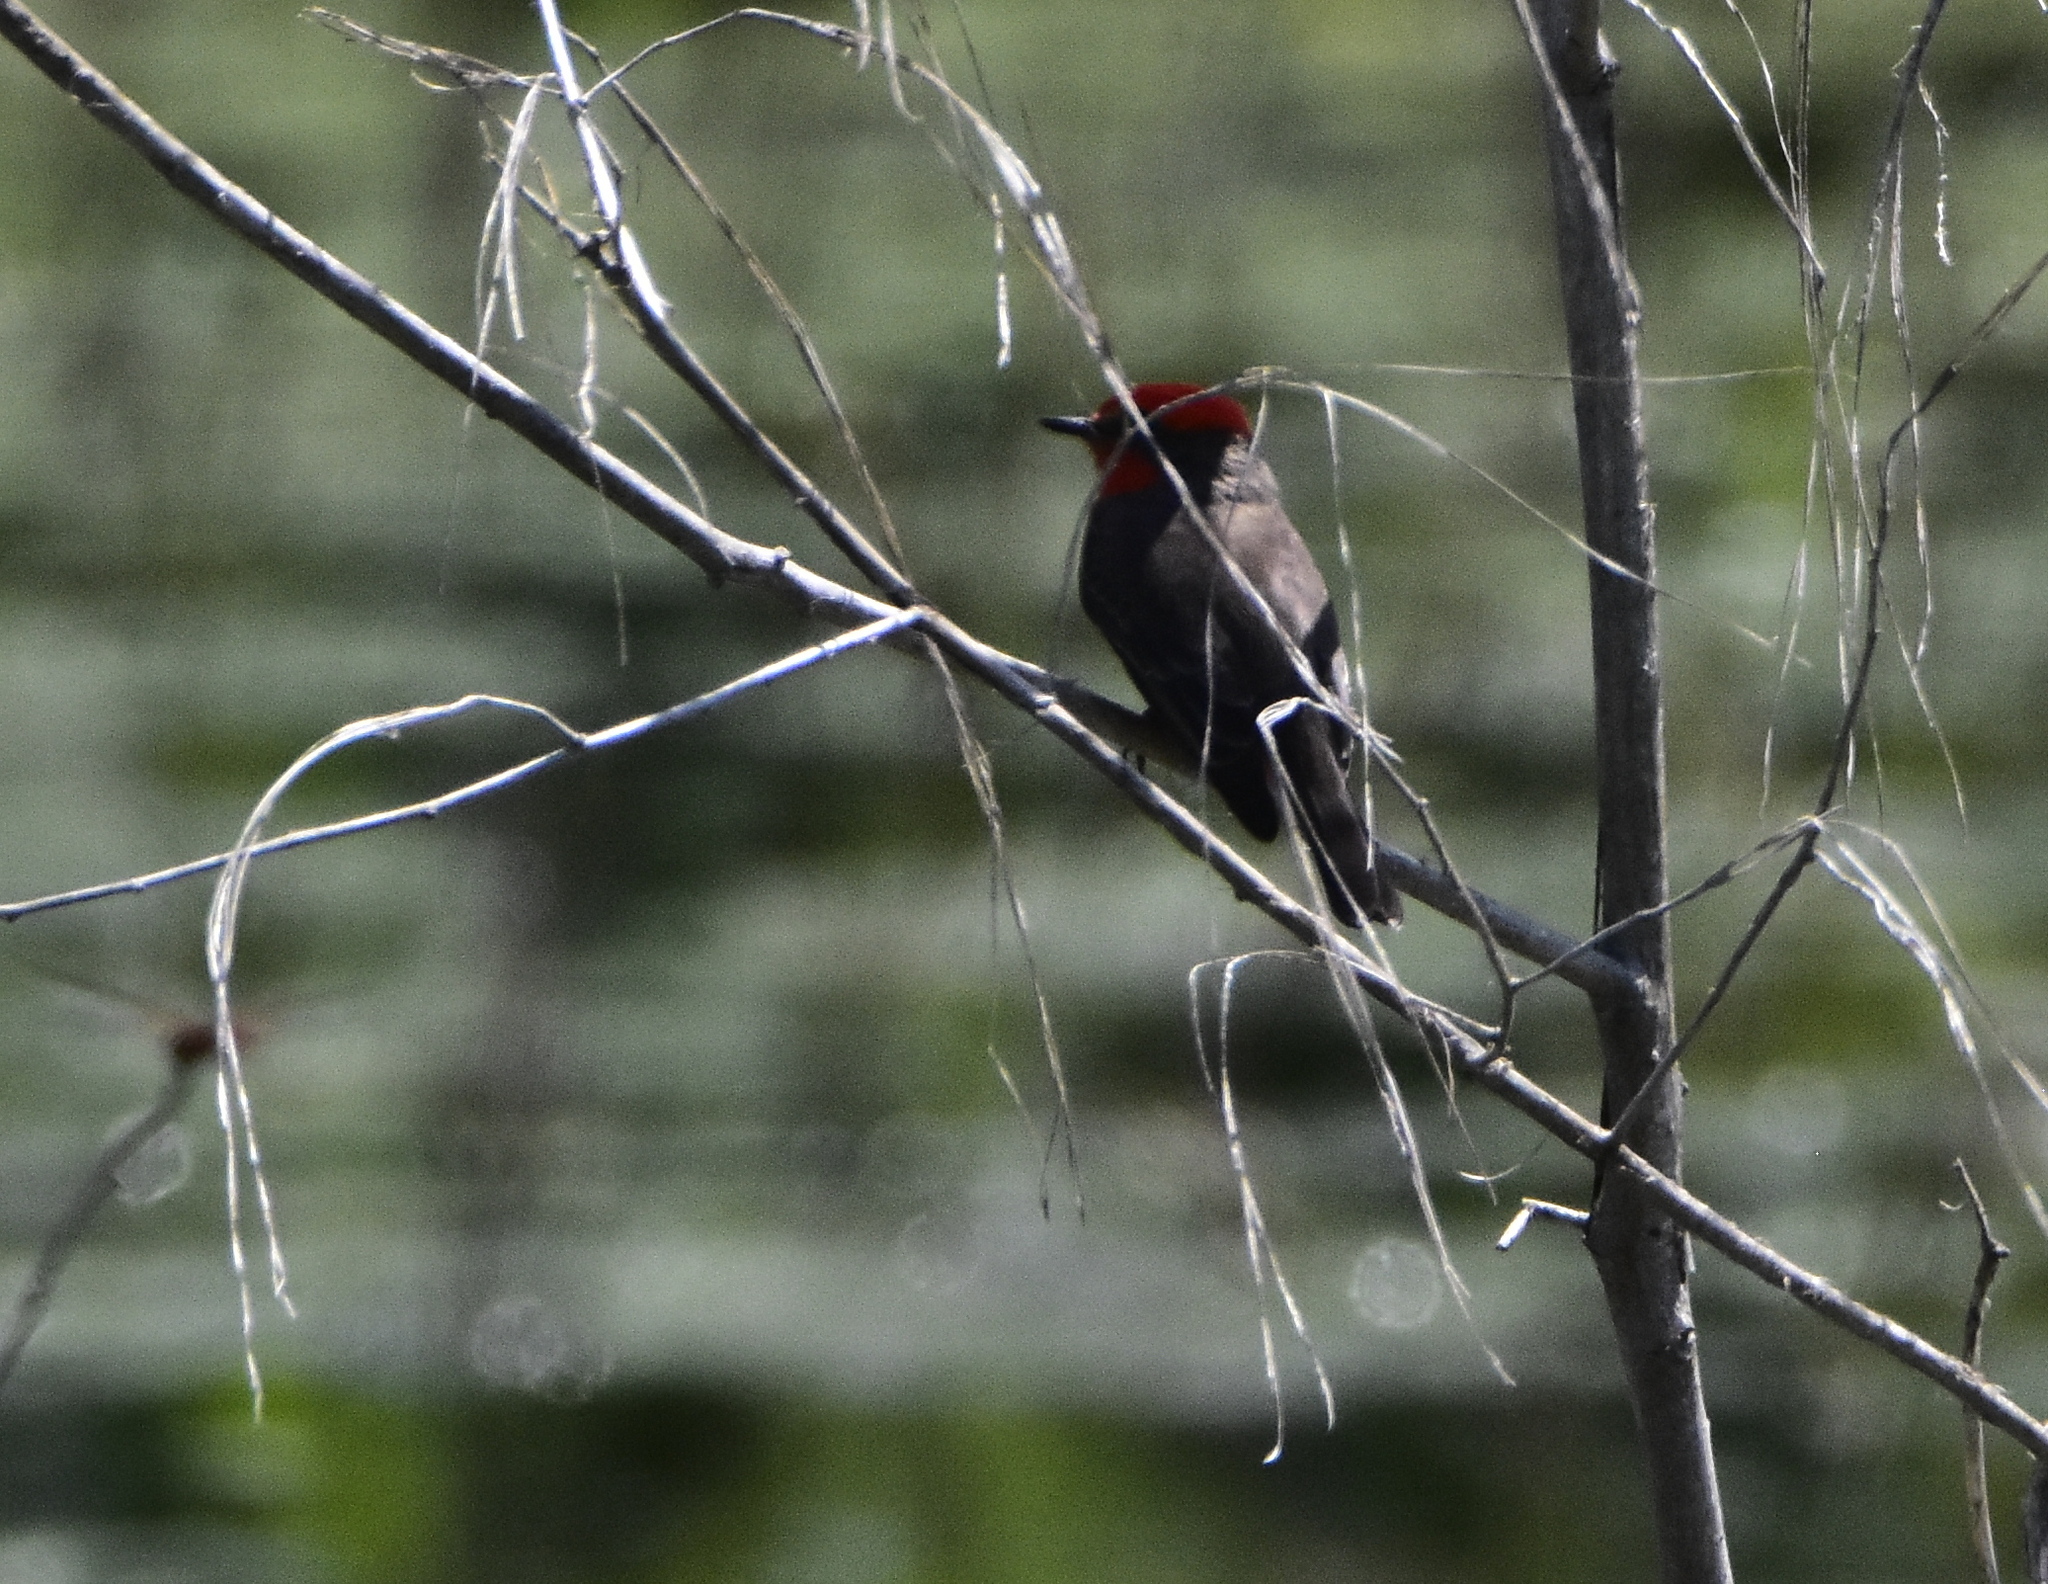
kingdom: Animalia
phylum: Chordata
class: Aves
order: Passeriformes
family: Tyrannidae
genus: Pyrocephalus
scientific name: Pyrocephalus rubinus
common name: Vermilion flycatcher
